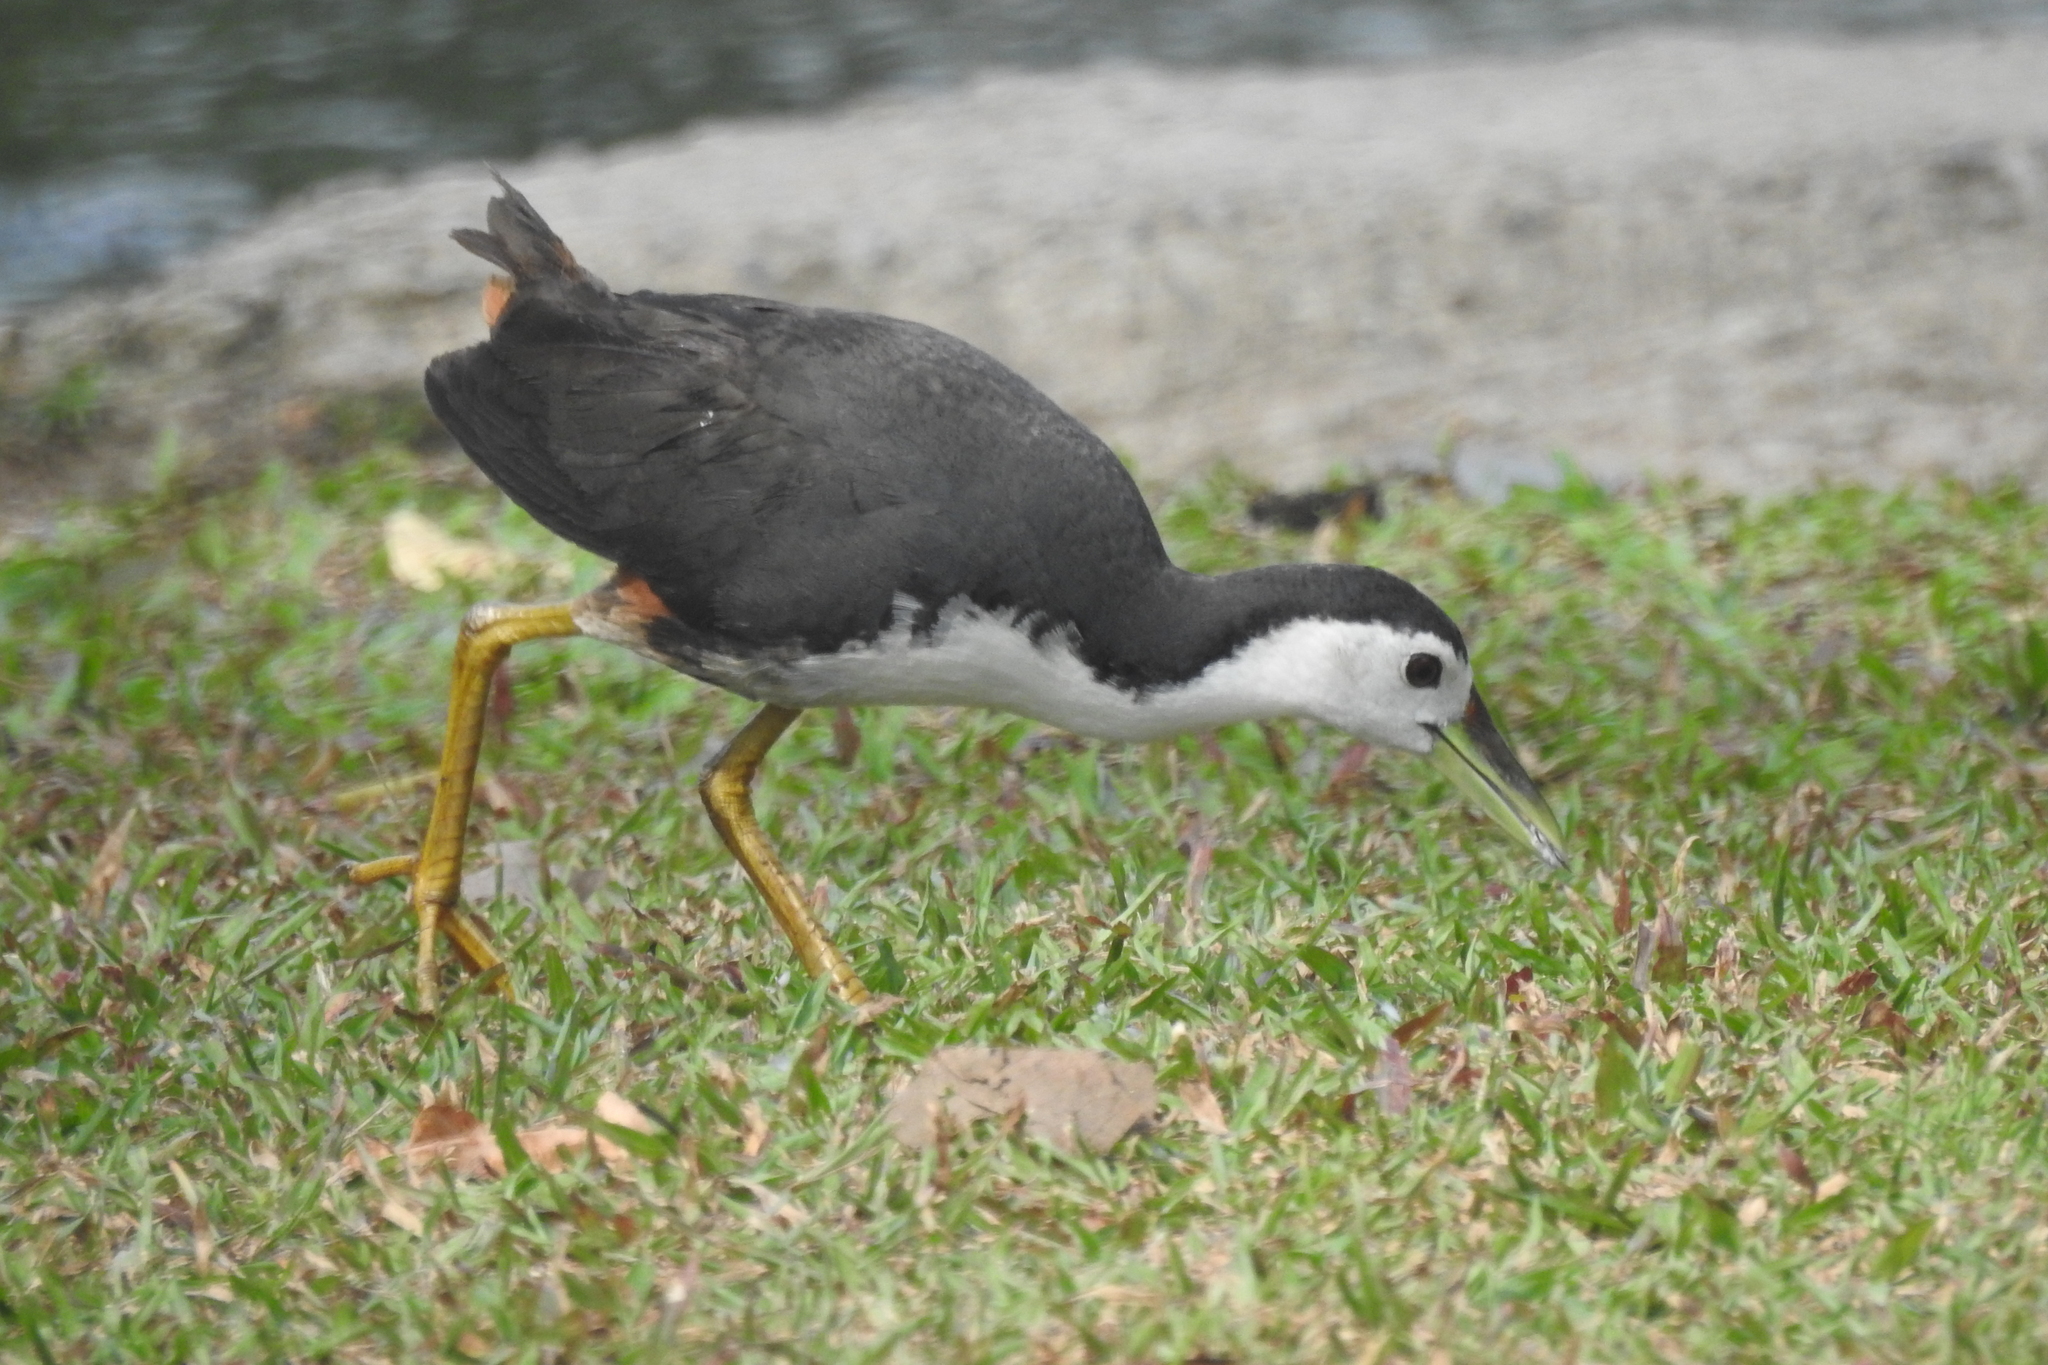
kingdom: Animalia
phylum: Chordata
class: Aves
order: Gruiformes
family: Rallidae
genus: Amaurornis
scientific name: Amaurornis phoenicurus
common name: White-breasted waterhen
